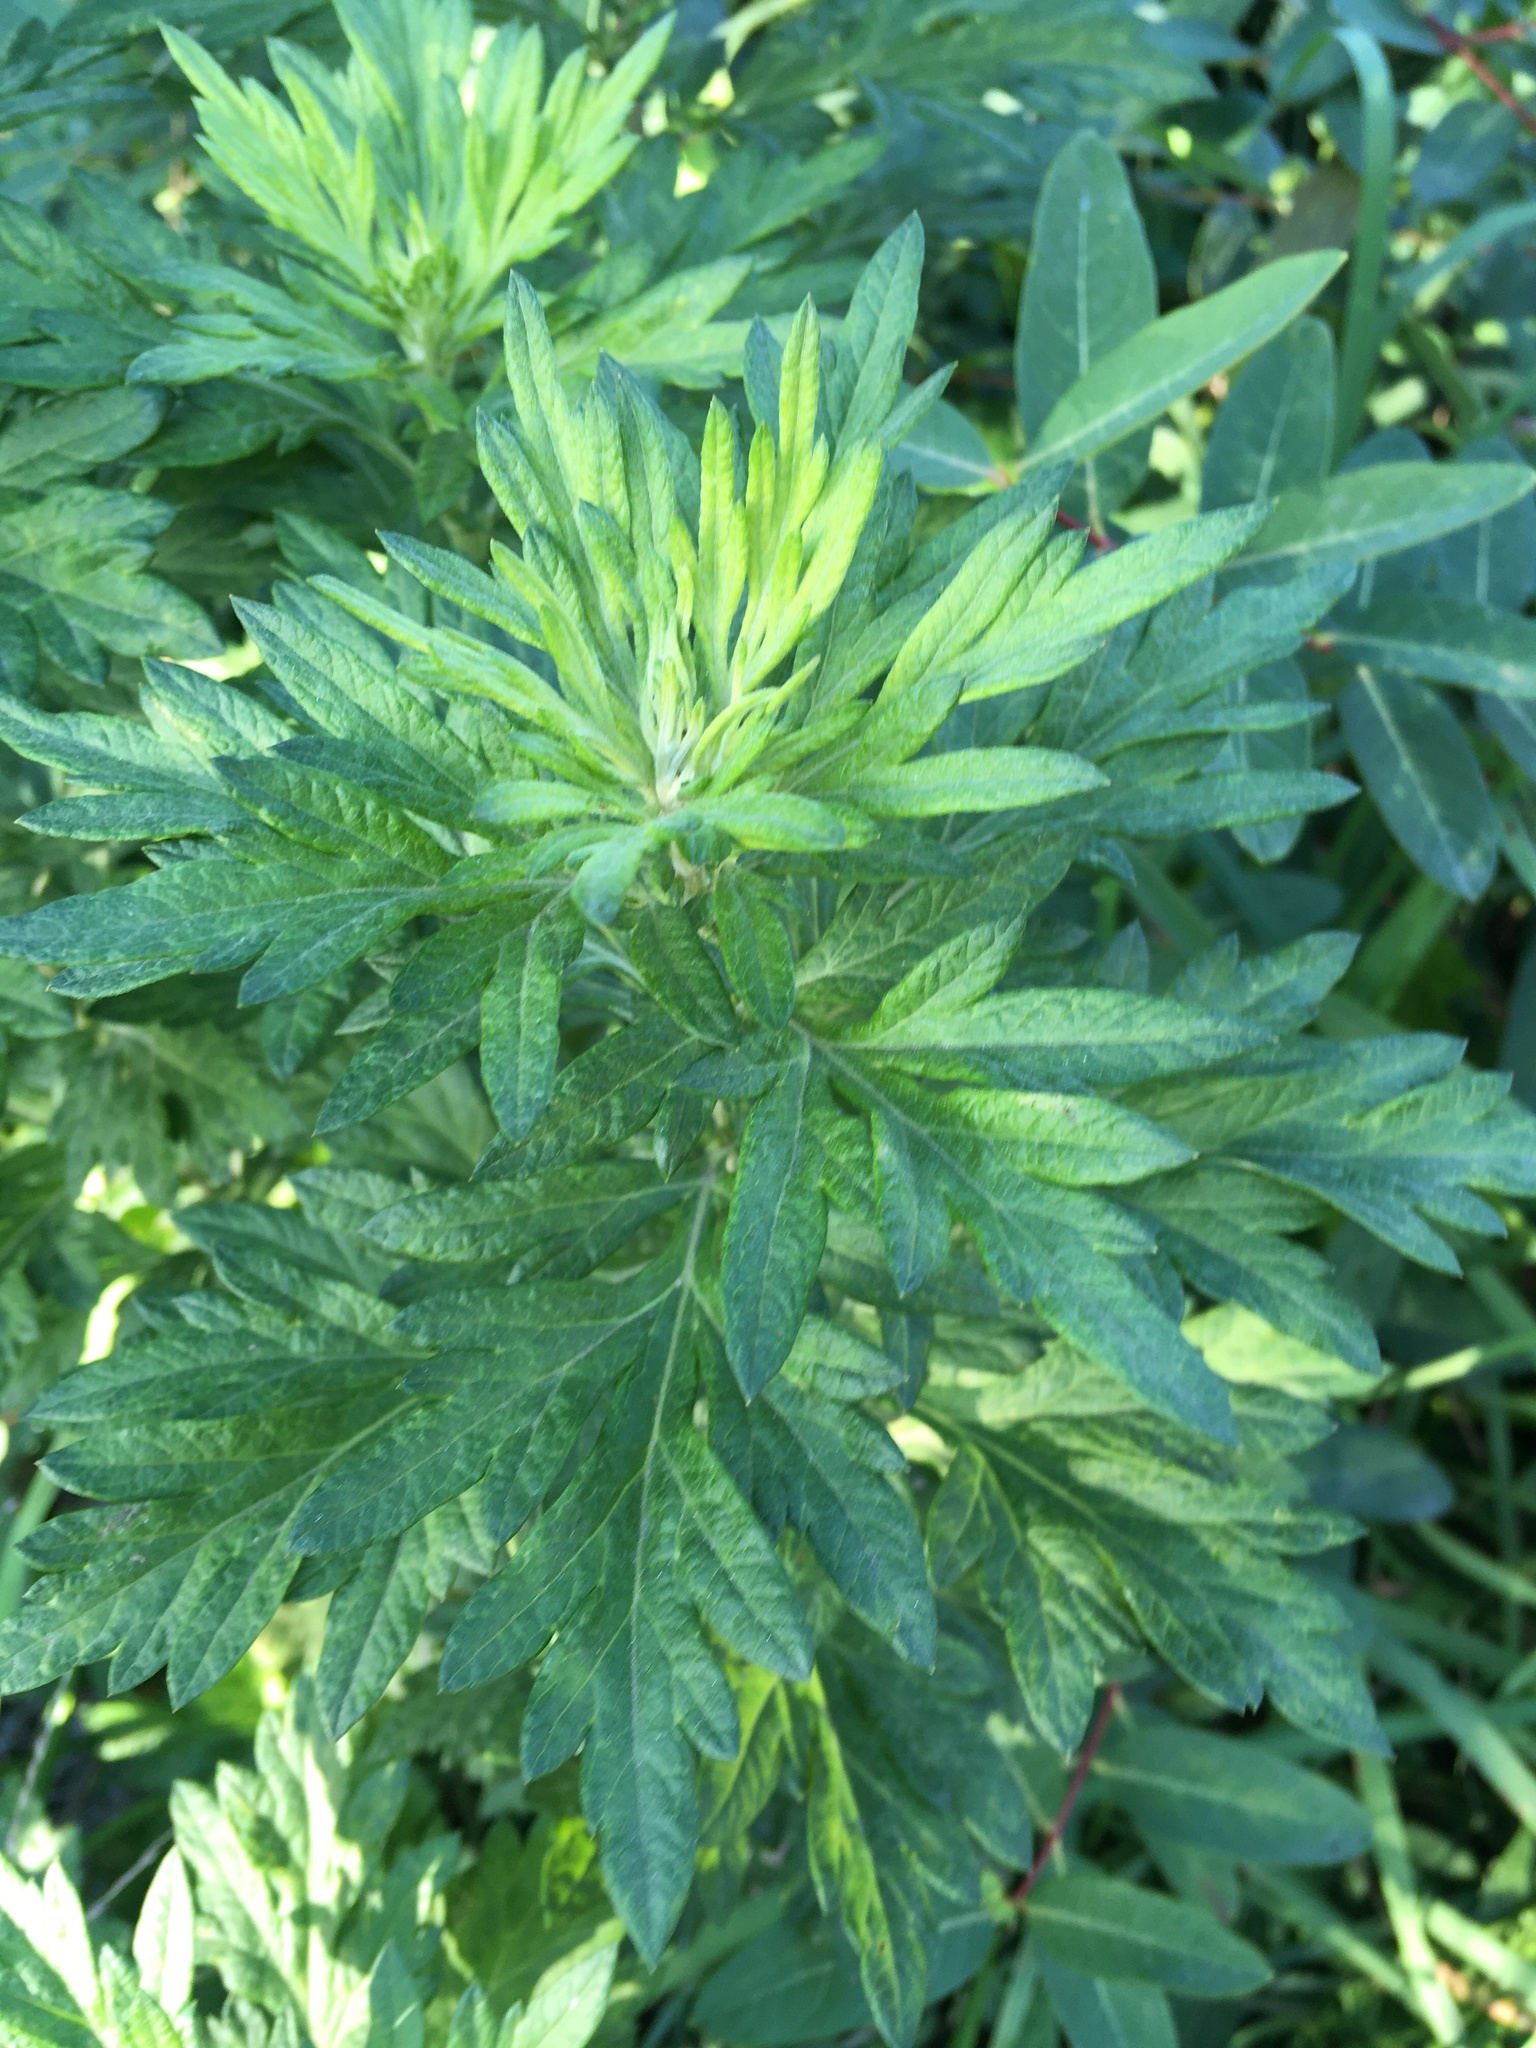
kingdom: Plantae
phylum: Tracheophyta
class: Magnoliopsida
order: Asterales
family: Asteraceae
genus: Artemisia
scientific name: Artemisia vulgaris
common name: Mugwort
